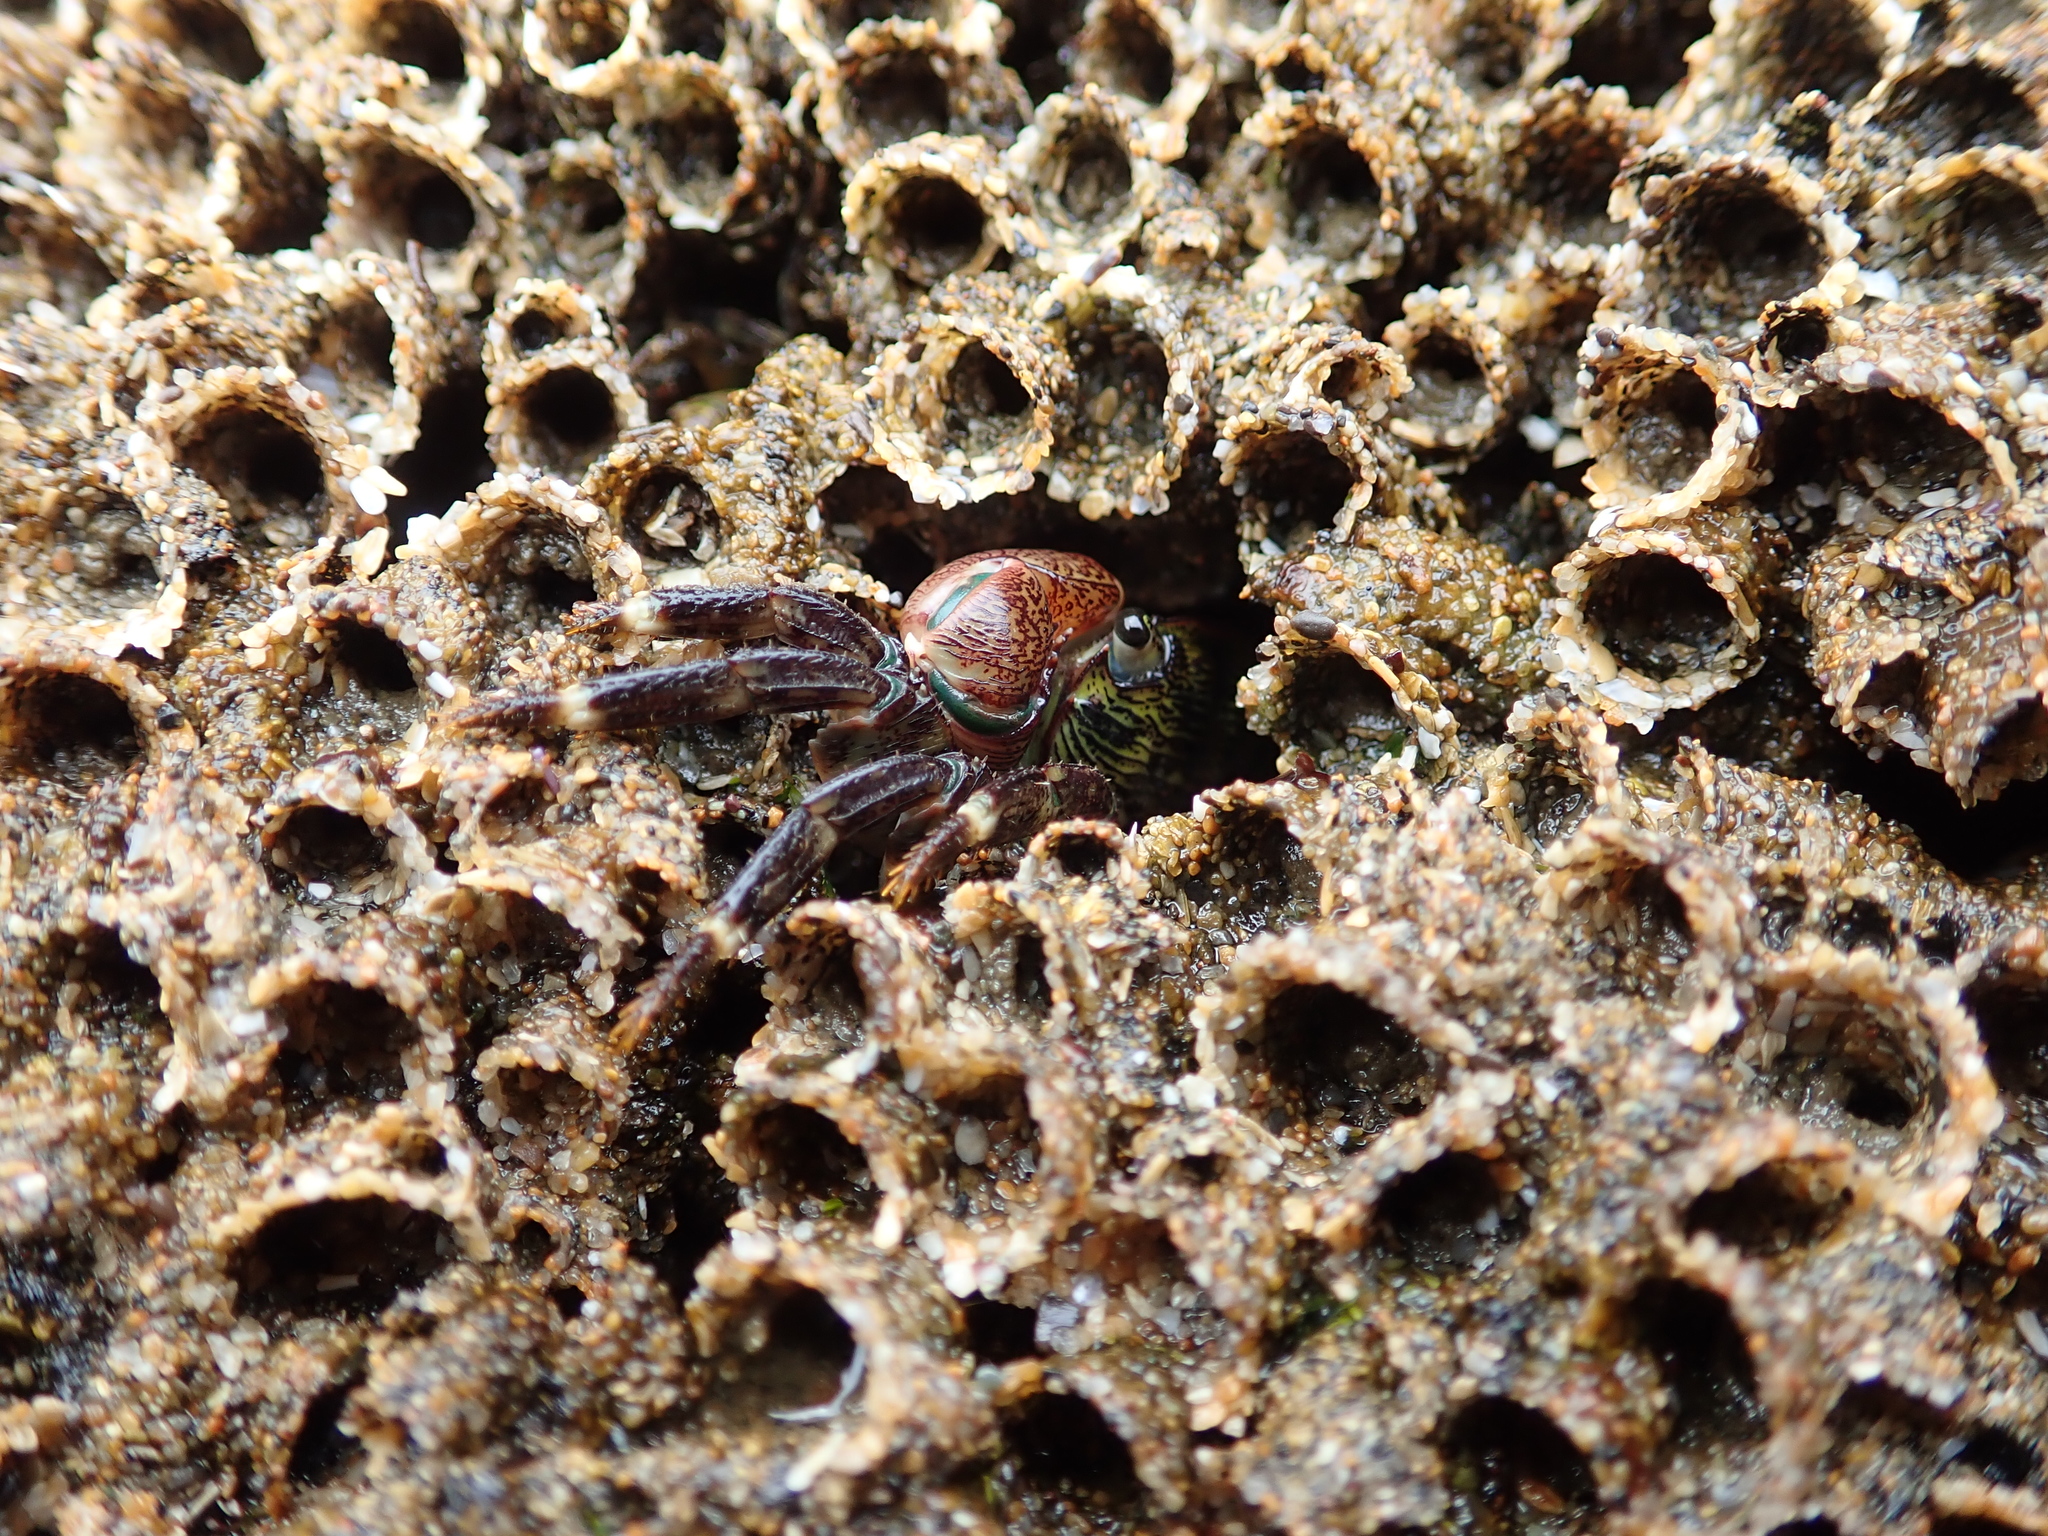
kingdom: Animalia
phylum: Arthropoda
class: Malacostraca
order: Decapoda
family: Grapsidae
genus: Pachygrapsus
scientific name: Pachygrapsus crassipes
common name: Striped shore crab
